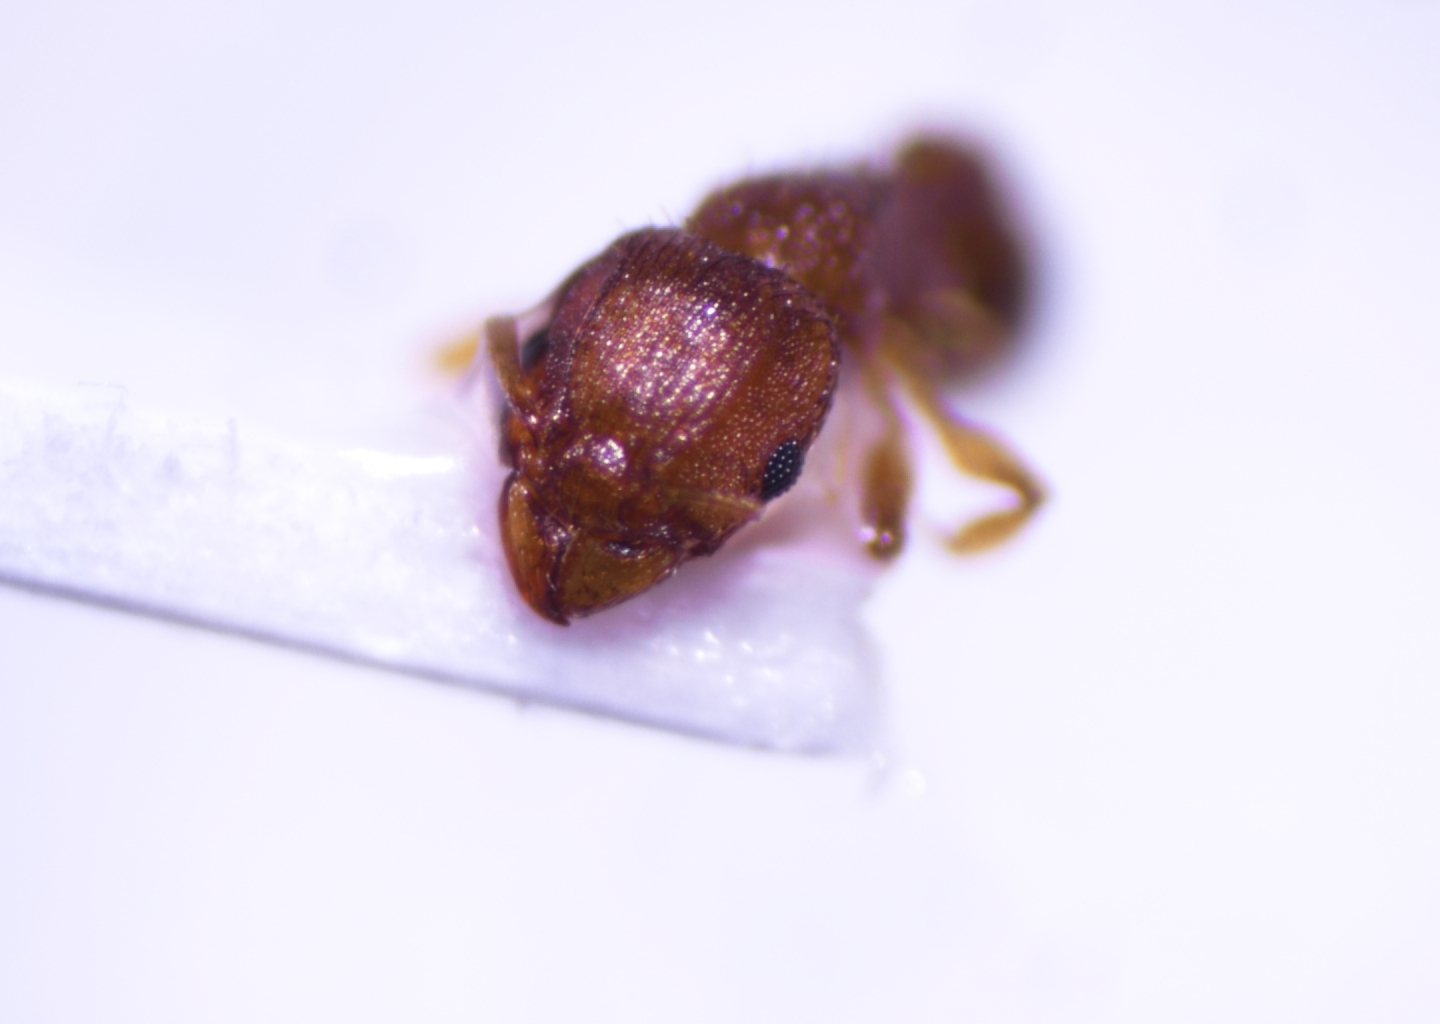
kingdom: Animalia
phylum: Arthropoda
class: Insecta
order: Hymenoptera
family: Formicidae
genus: Tetramorium
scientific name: Tetramorium simillimum
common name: Ant
